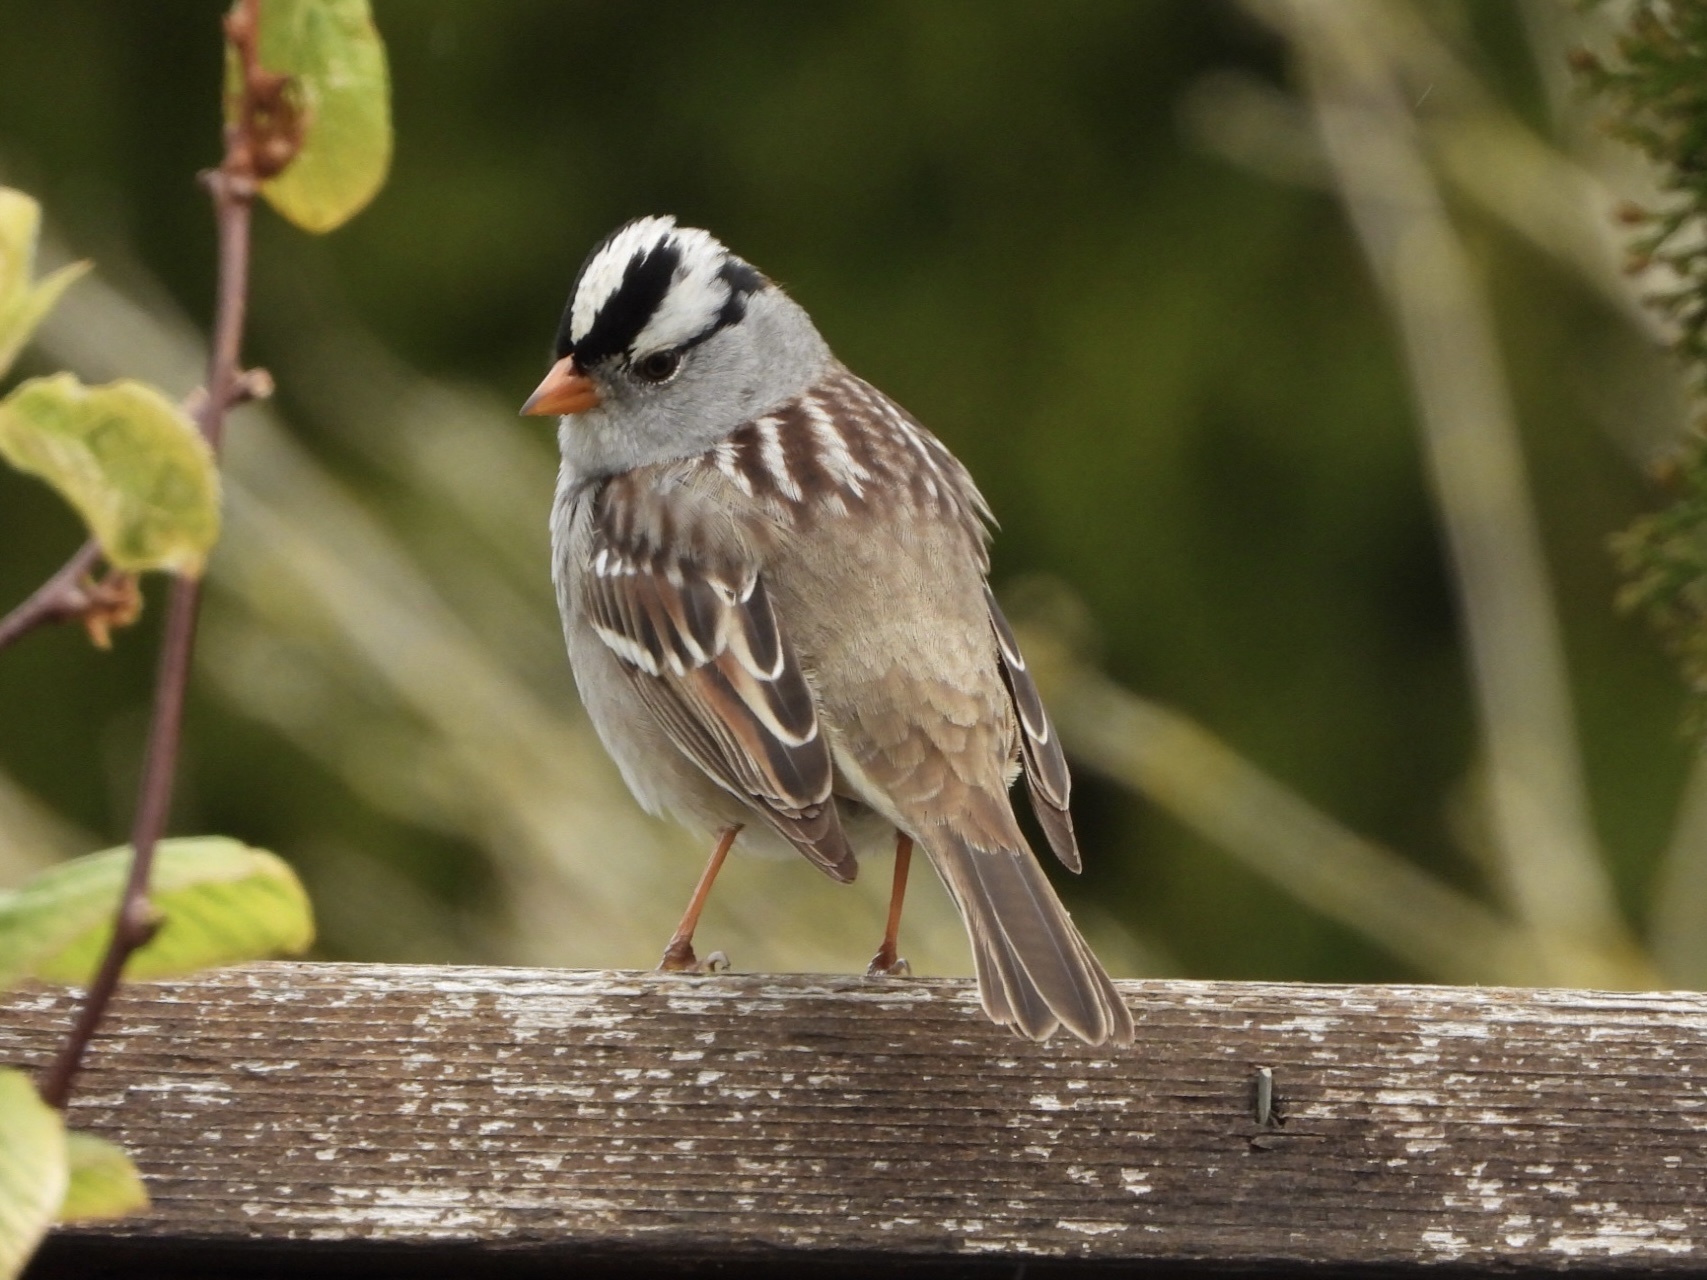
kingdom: Animalia
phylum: Chordata
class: Aves
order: Passeriformes
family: Passerellidae
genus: Zonotrichia
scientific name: Zonotrichia leucophrys
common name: White-crowned sparrow
